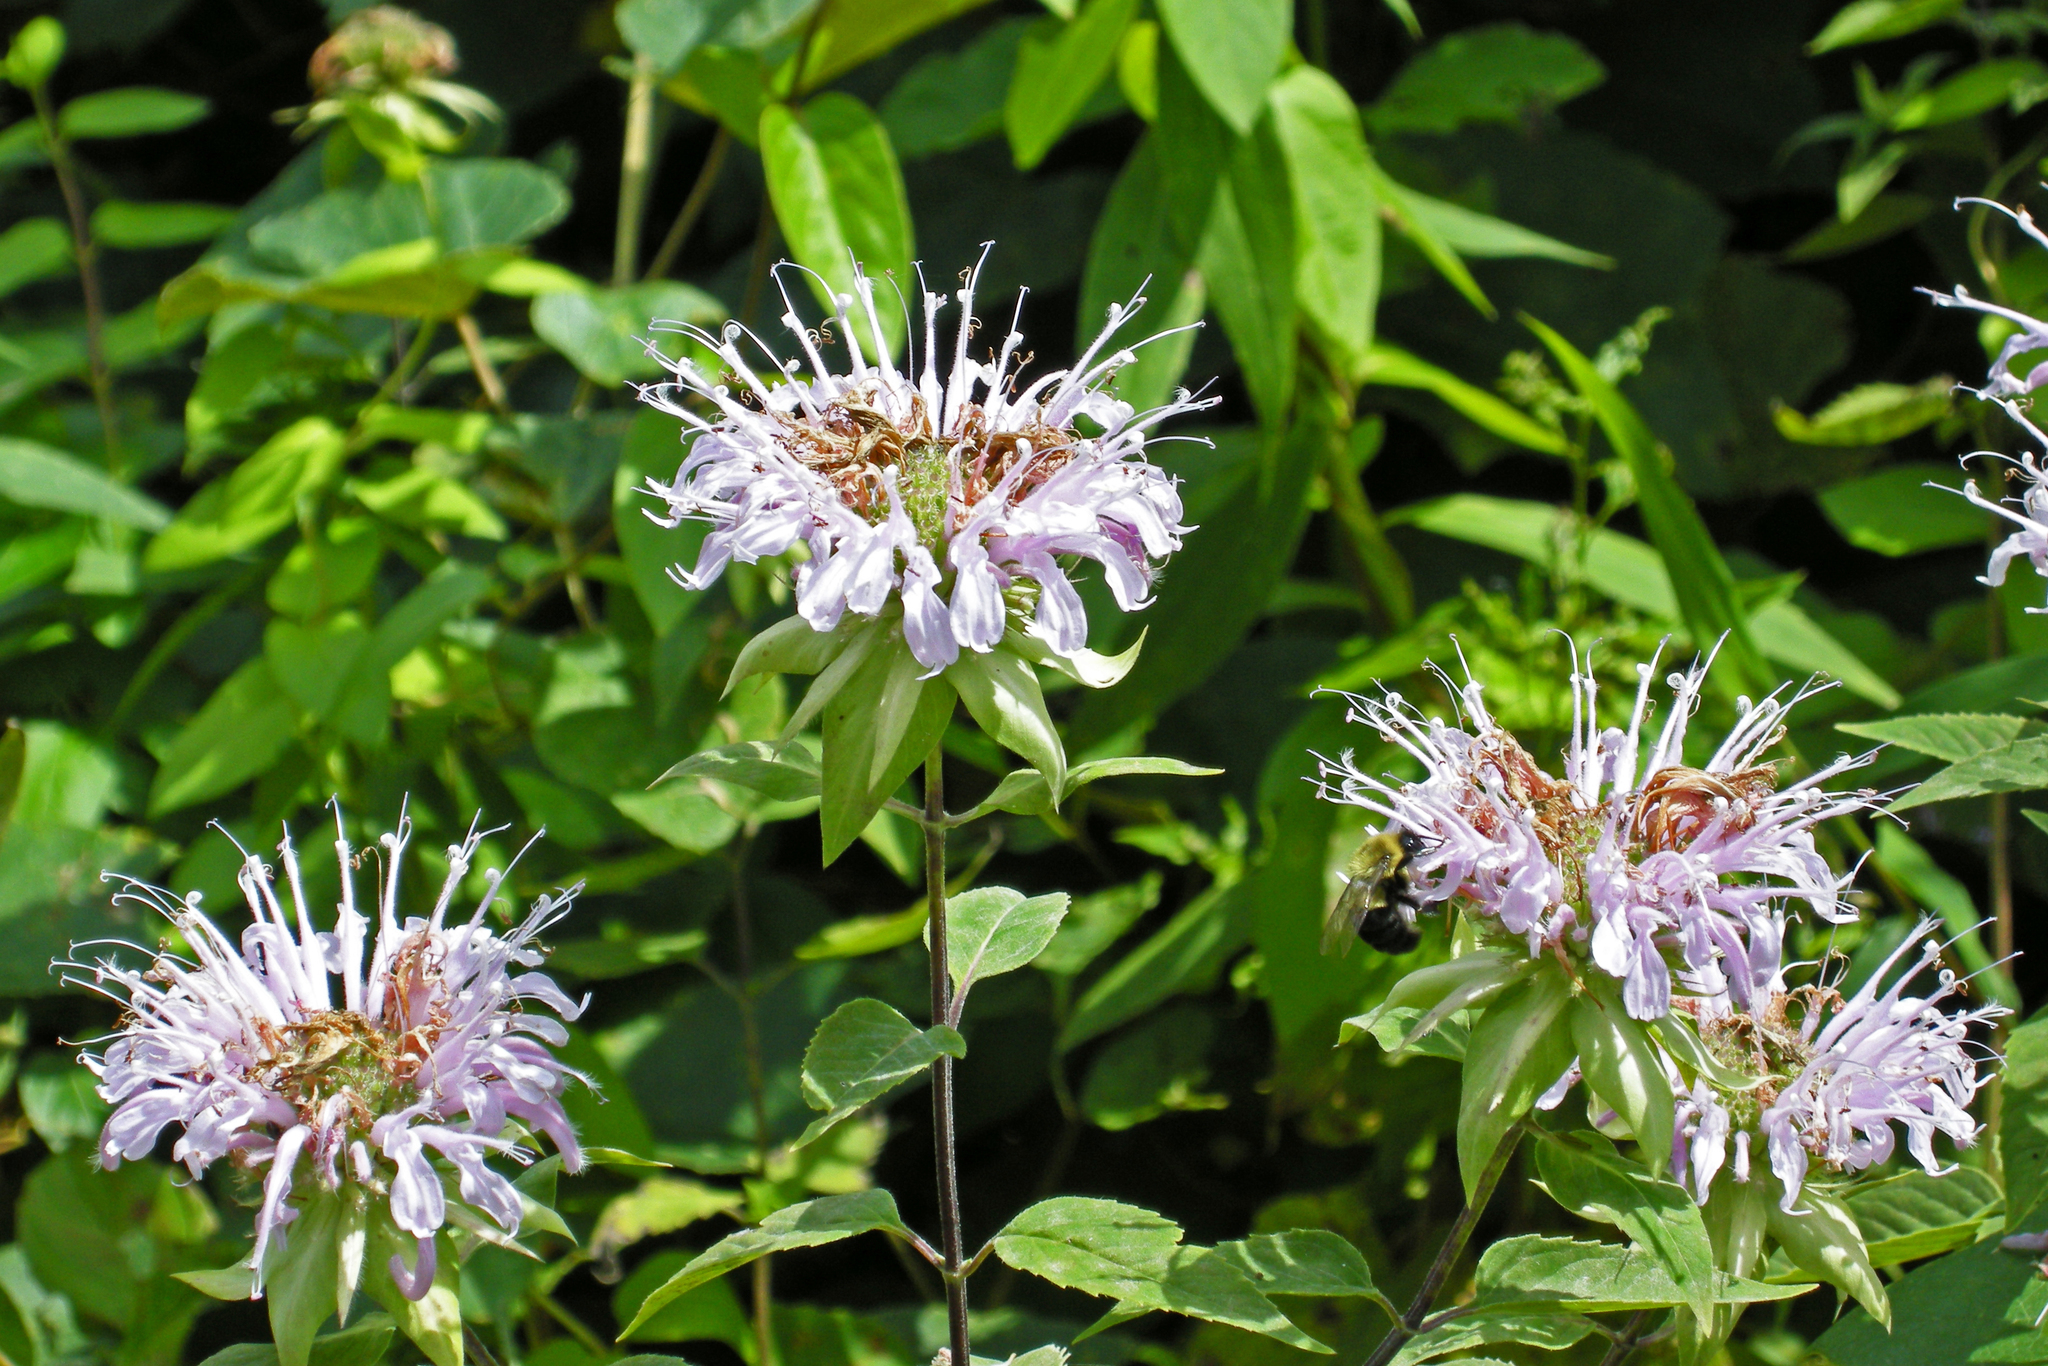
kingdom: Plantae
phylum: Tracheophyta
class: Magnoliopsida
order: Lamiales
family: Lamiaceae
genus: Monarda
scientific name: Monarda fistulosa
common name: Purple beebalm
